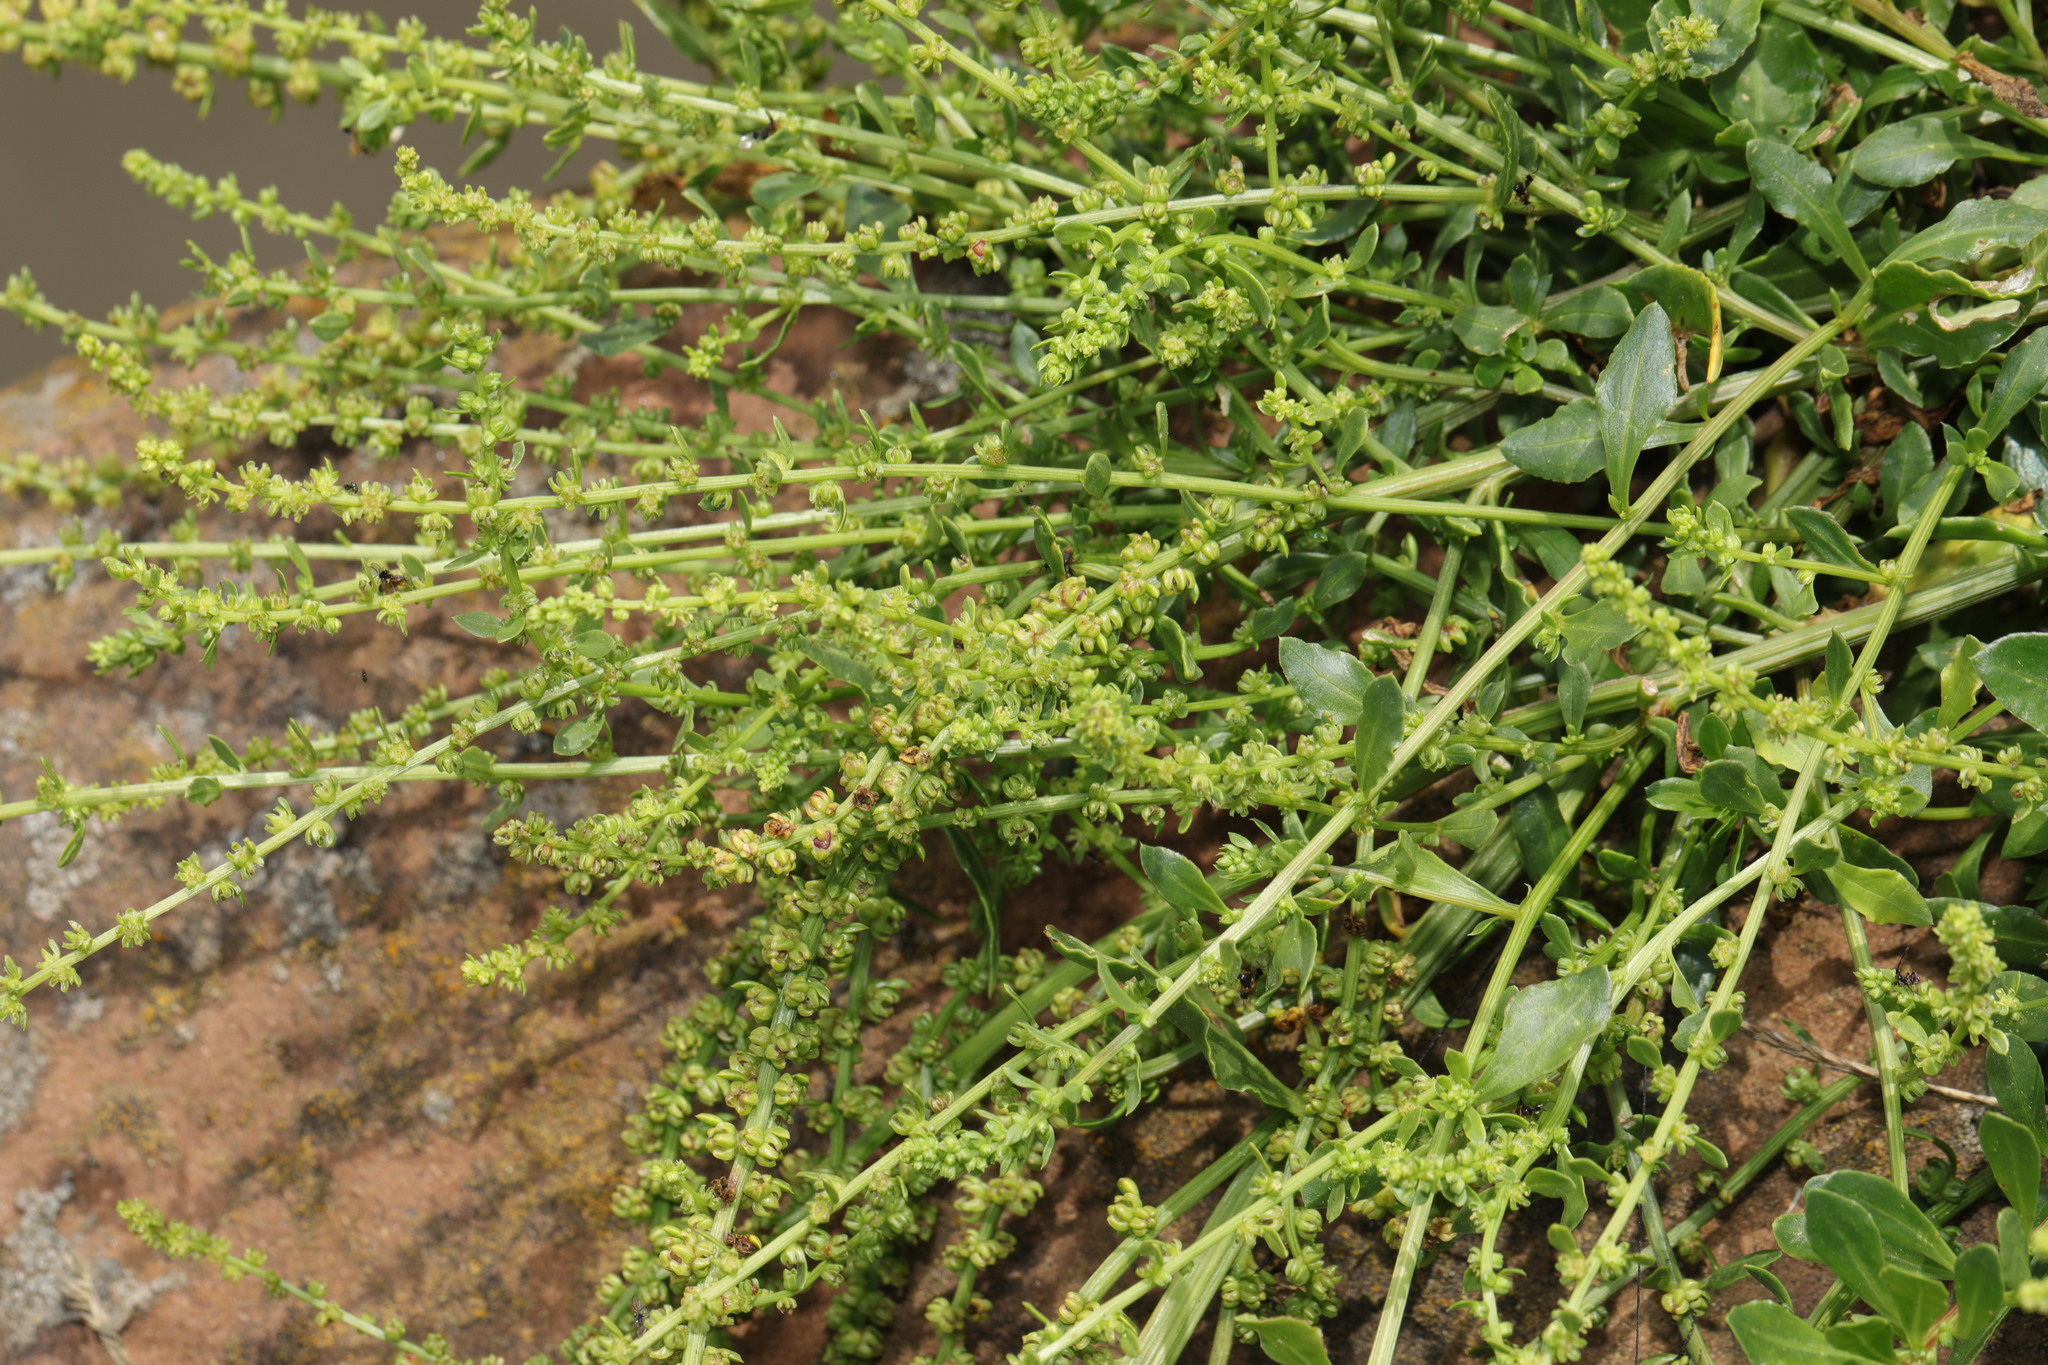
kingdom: Plantae
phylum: Tracheophyta
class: Magnoliopsida
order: Caryophyllales
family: Amaranthaceae
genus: Beta
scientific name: Beta vulgaris
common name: Beet
